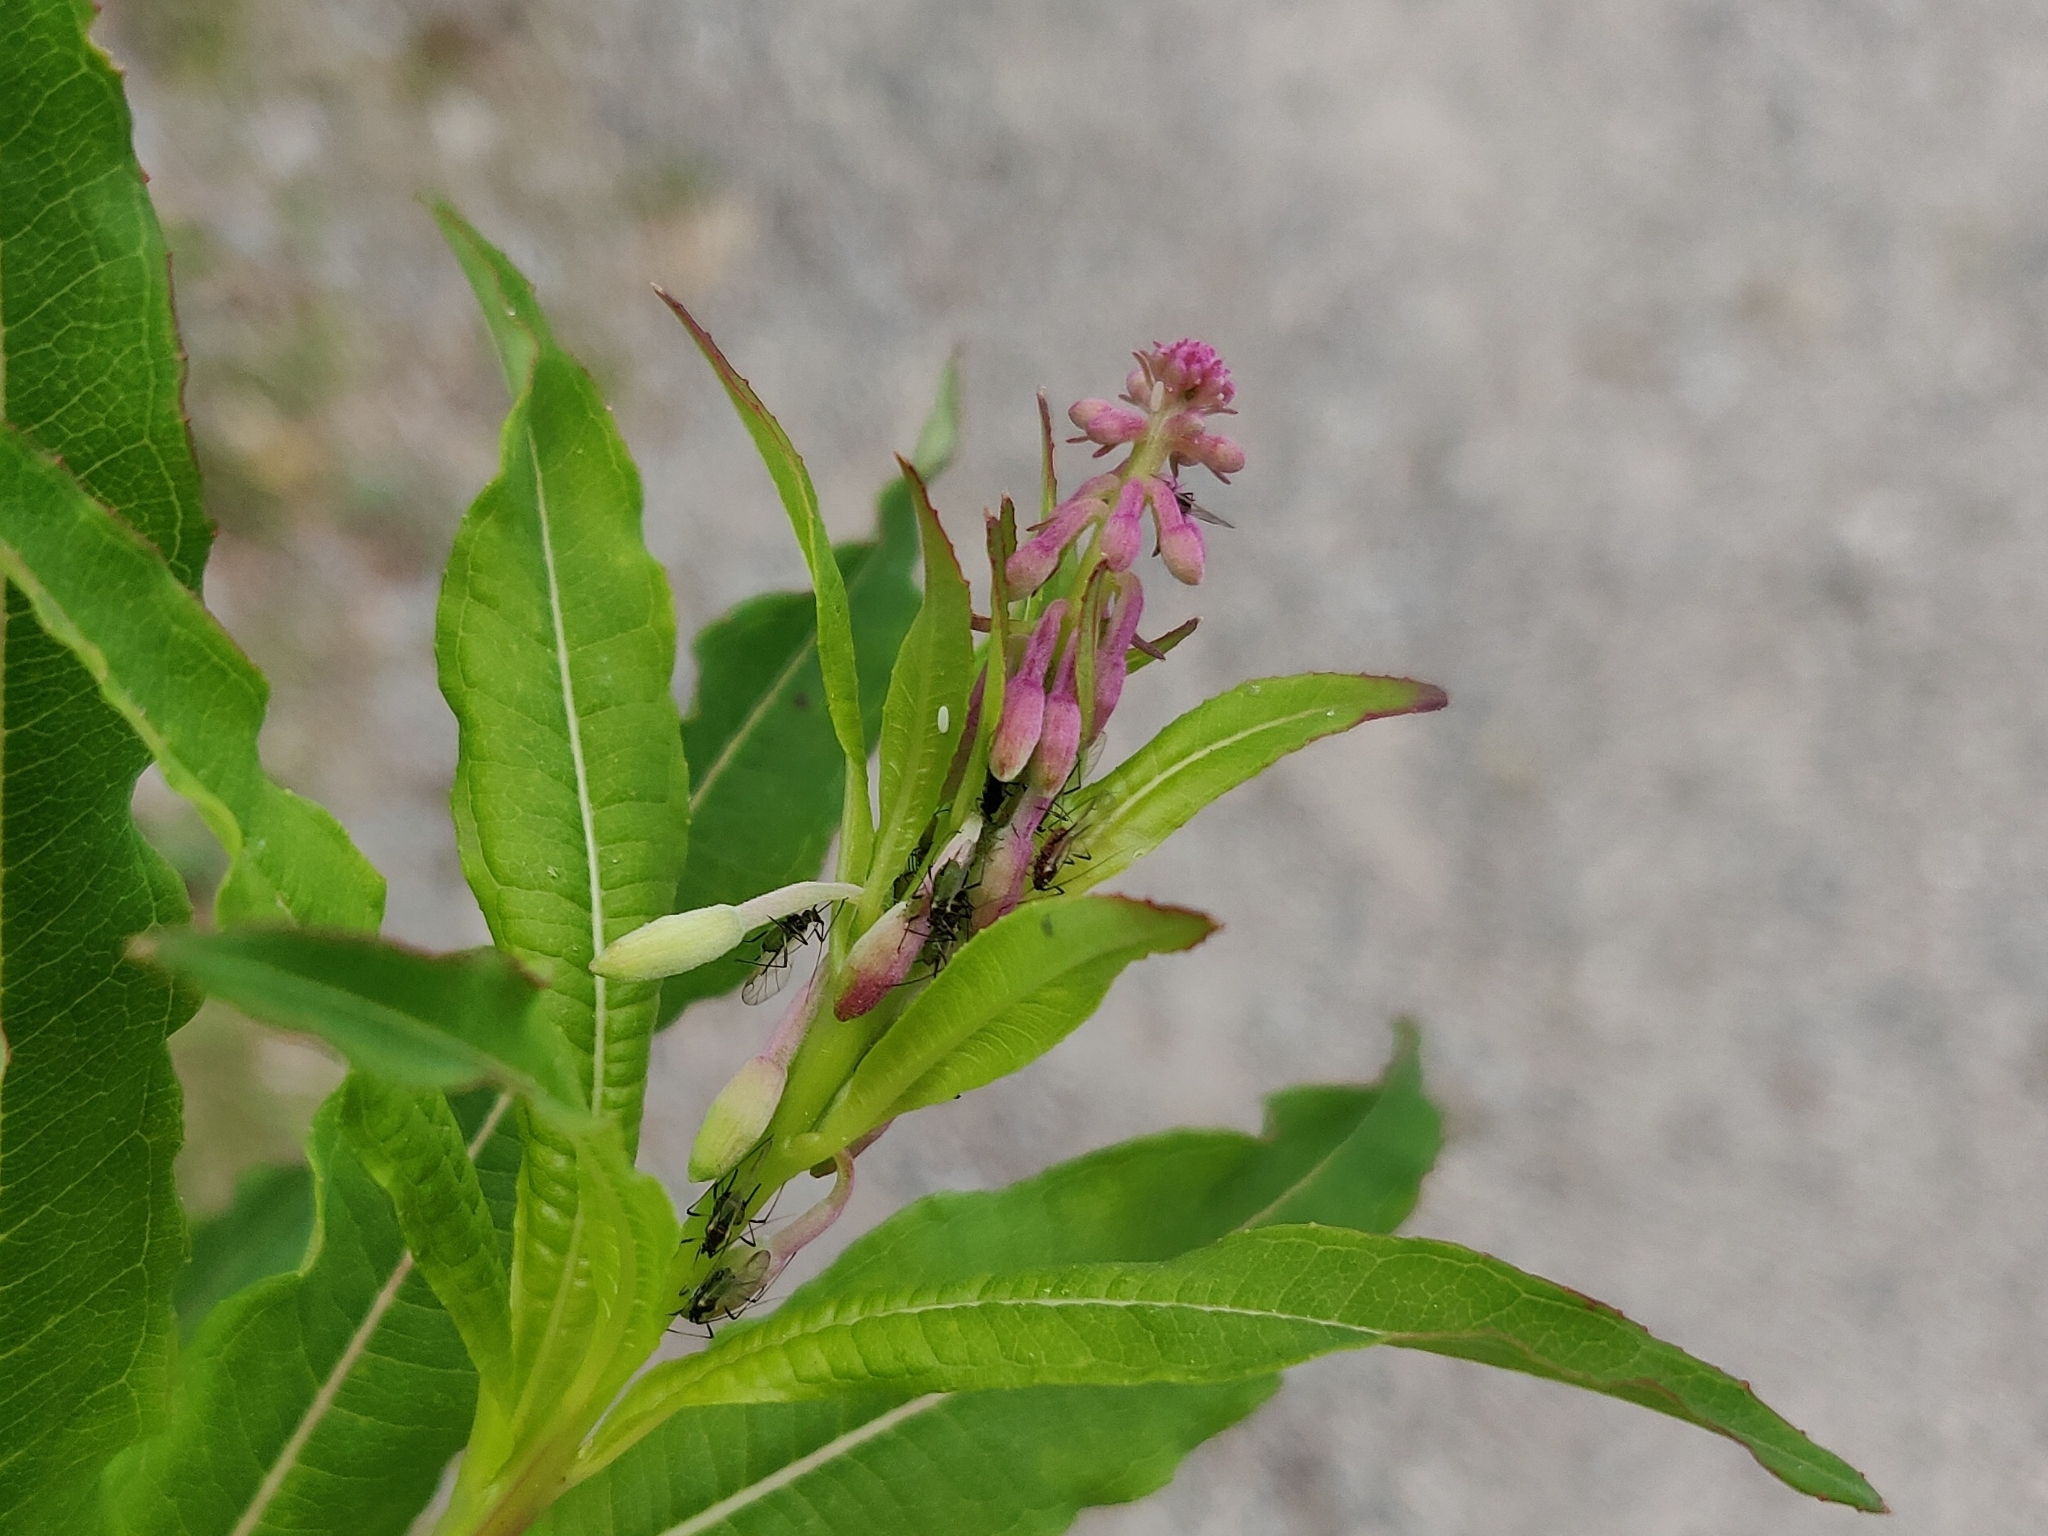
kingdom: Plantae
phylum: Tracheophyta
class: Magnoliopsida
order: Myrtales
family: Onagraceae
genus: Chamaenerion
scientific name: Chamaenerion angustifolium
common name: Fireweed
